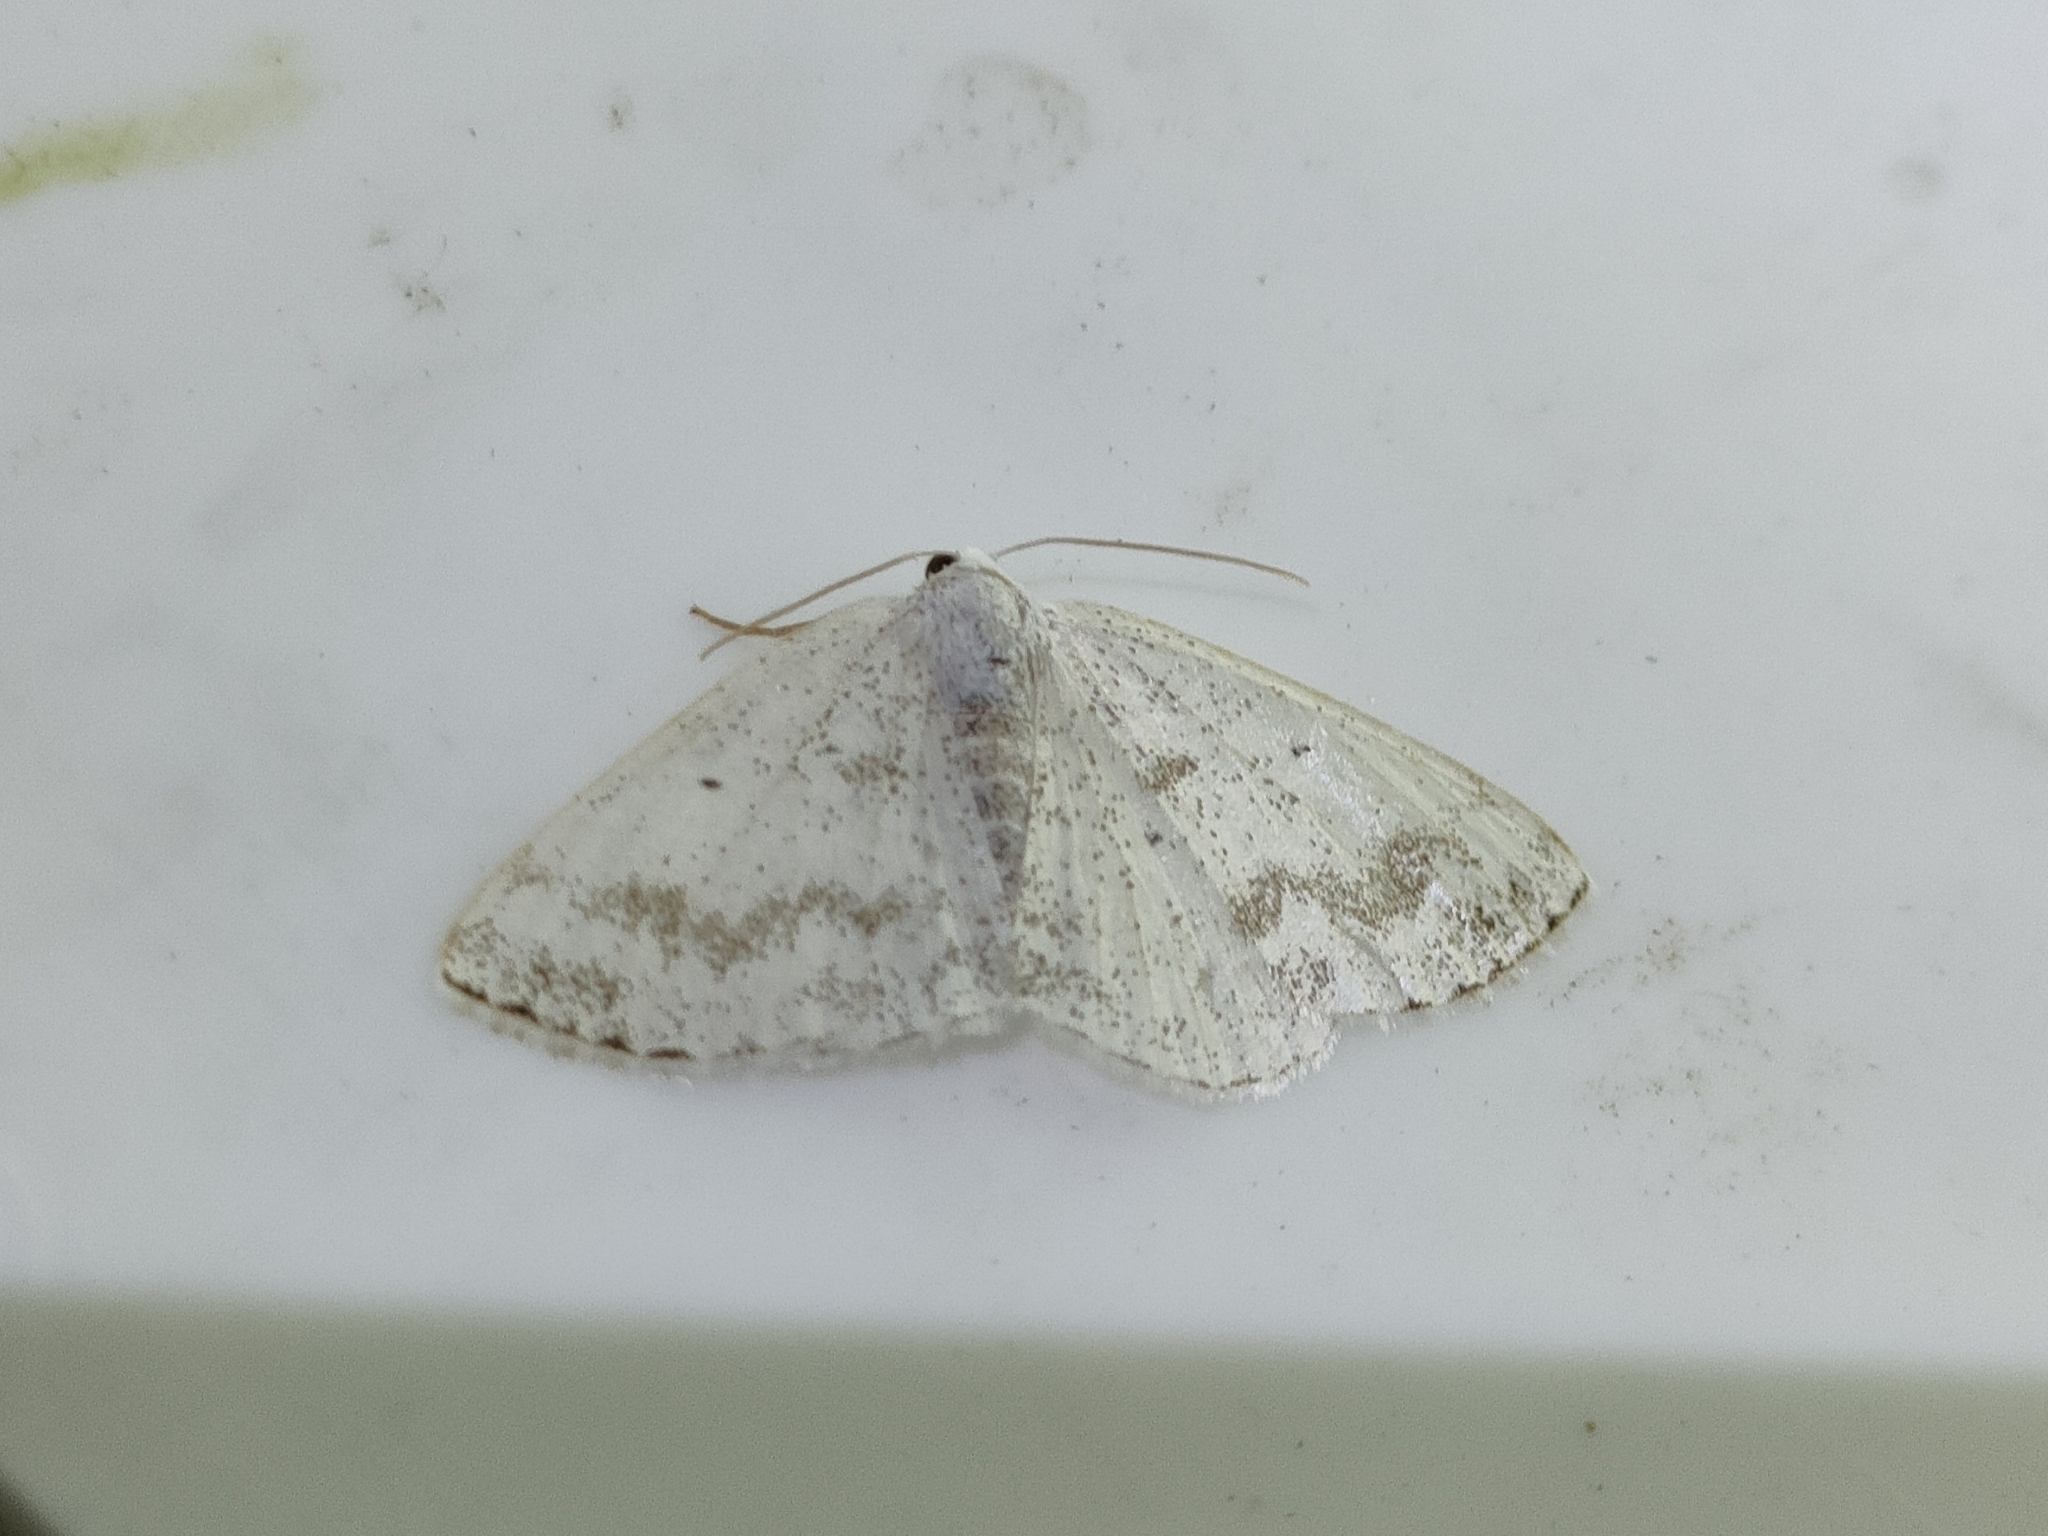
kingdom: Animalia
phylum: Arthropoda
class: Insecta
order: Lepidoptera
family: Geometridae
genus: Lomographa
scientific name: Lomographa temerata
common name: Clouded silver
